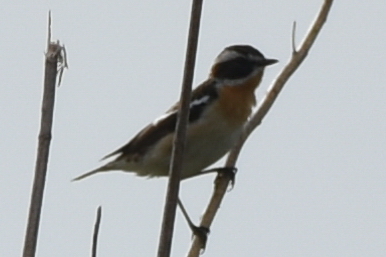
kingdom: Animalia
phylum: Chordata
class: Aves
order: Passeriformes
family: Muscicapidae
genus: Saxicola
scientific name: Saxicola rubetra
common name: Whinchat
